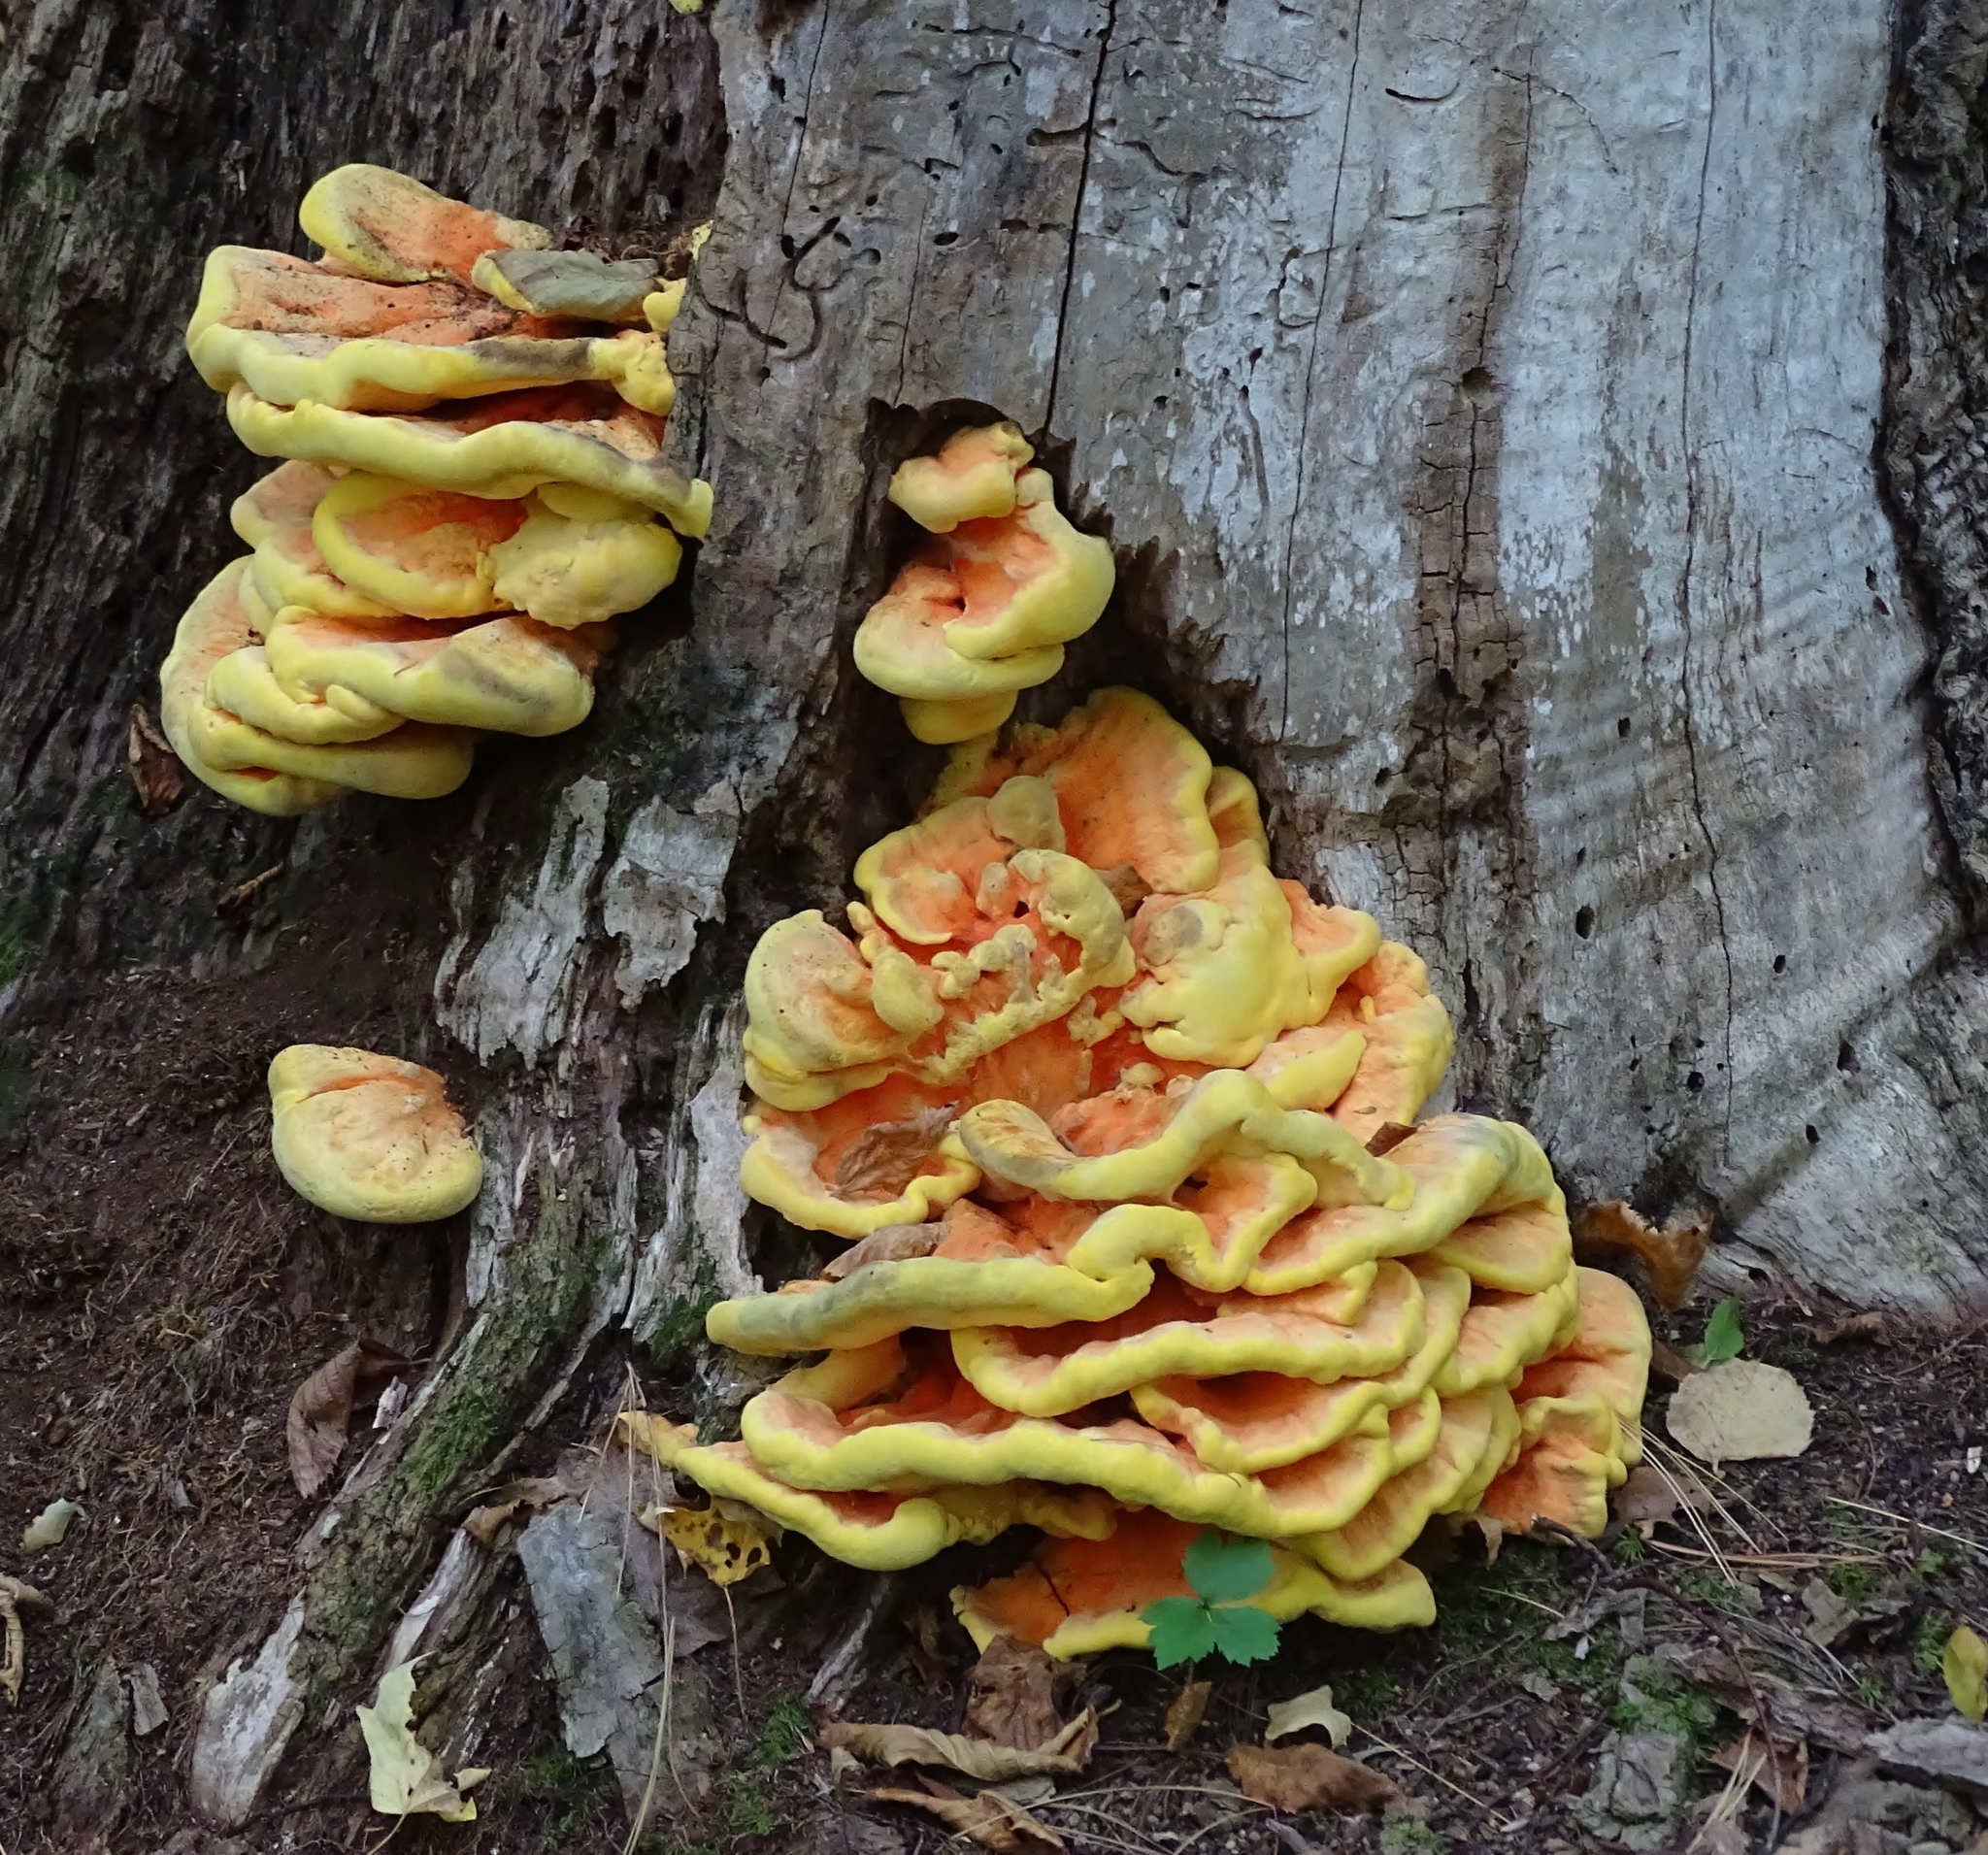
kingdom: Fungi
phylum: Basidiomycota
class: Agaricomycetes
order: Polyporales
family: Laetiporaceae
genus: Laetiporus
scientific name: Laetiporus sulphureus
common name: Chicken of the woods
